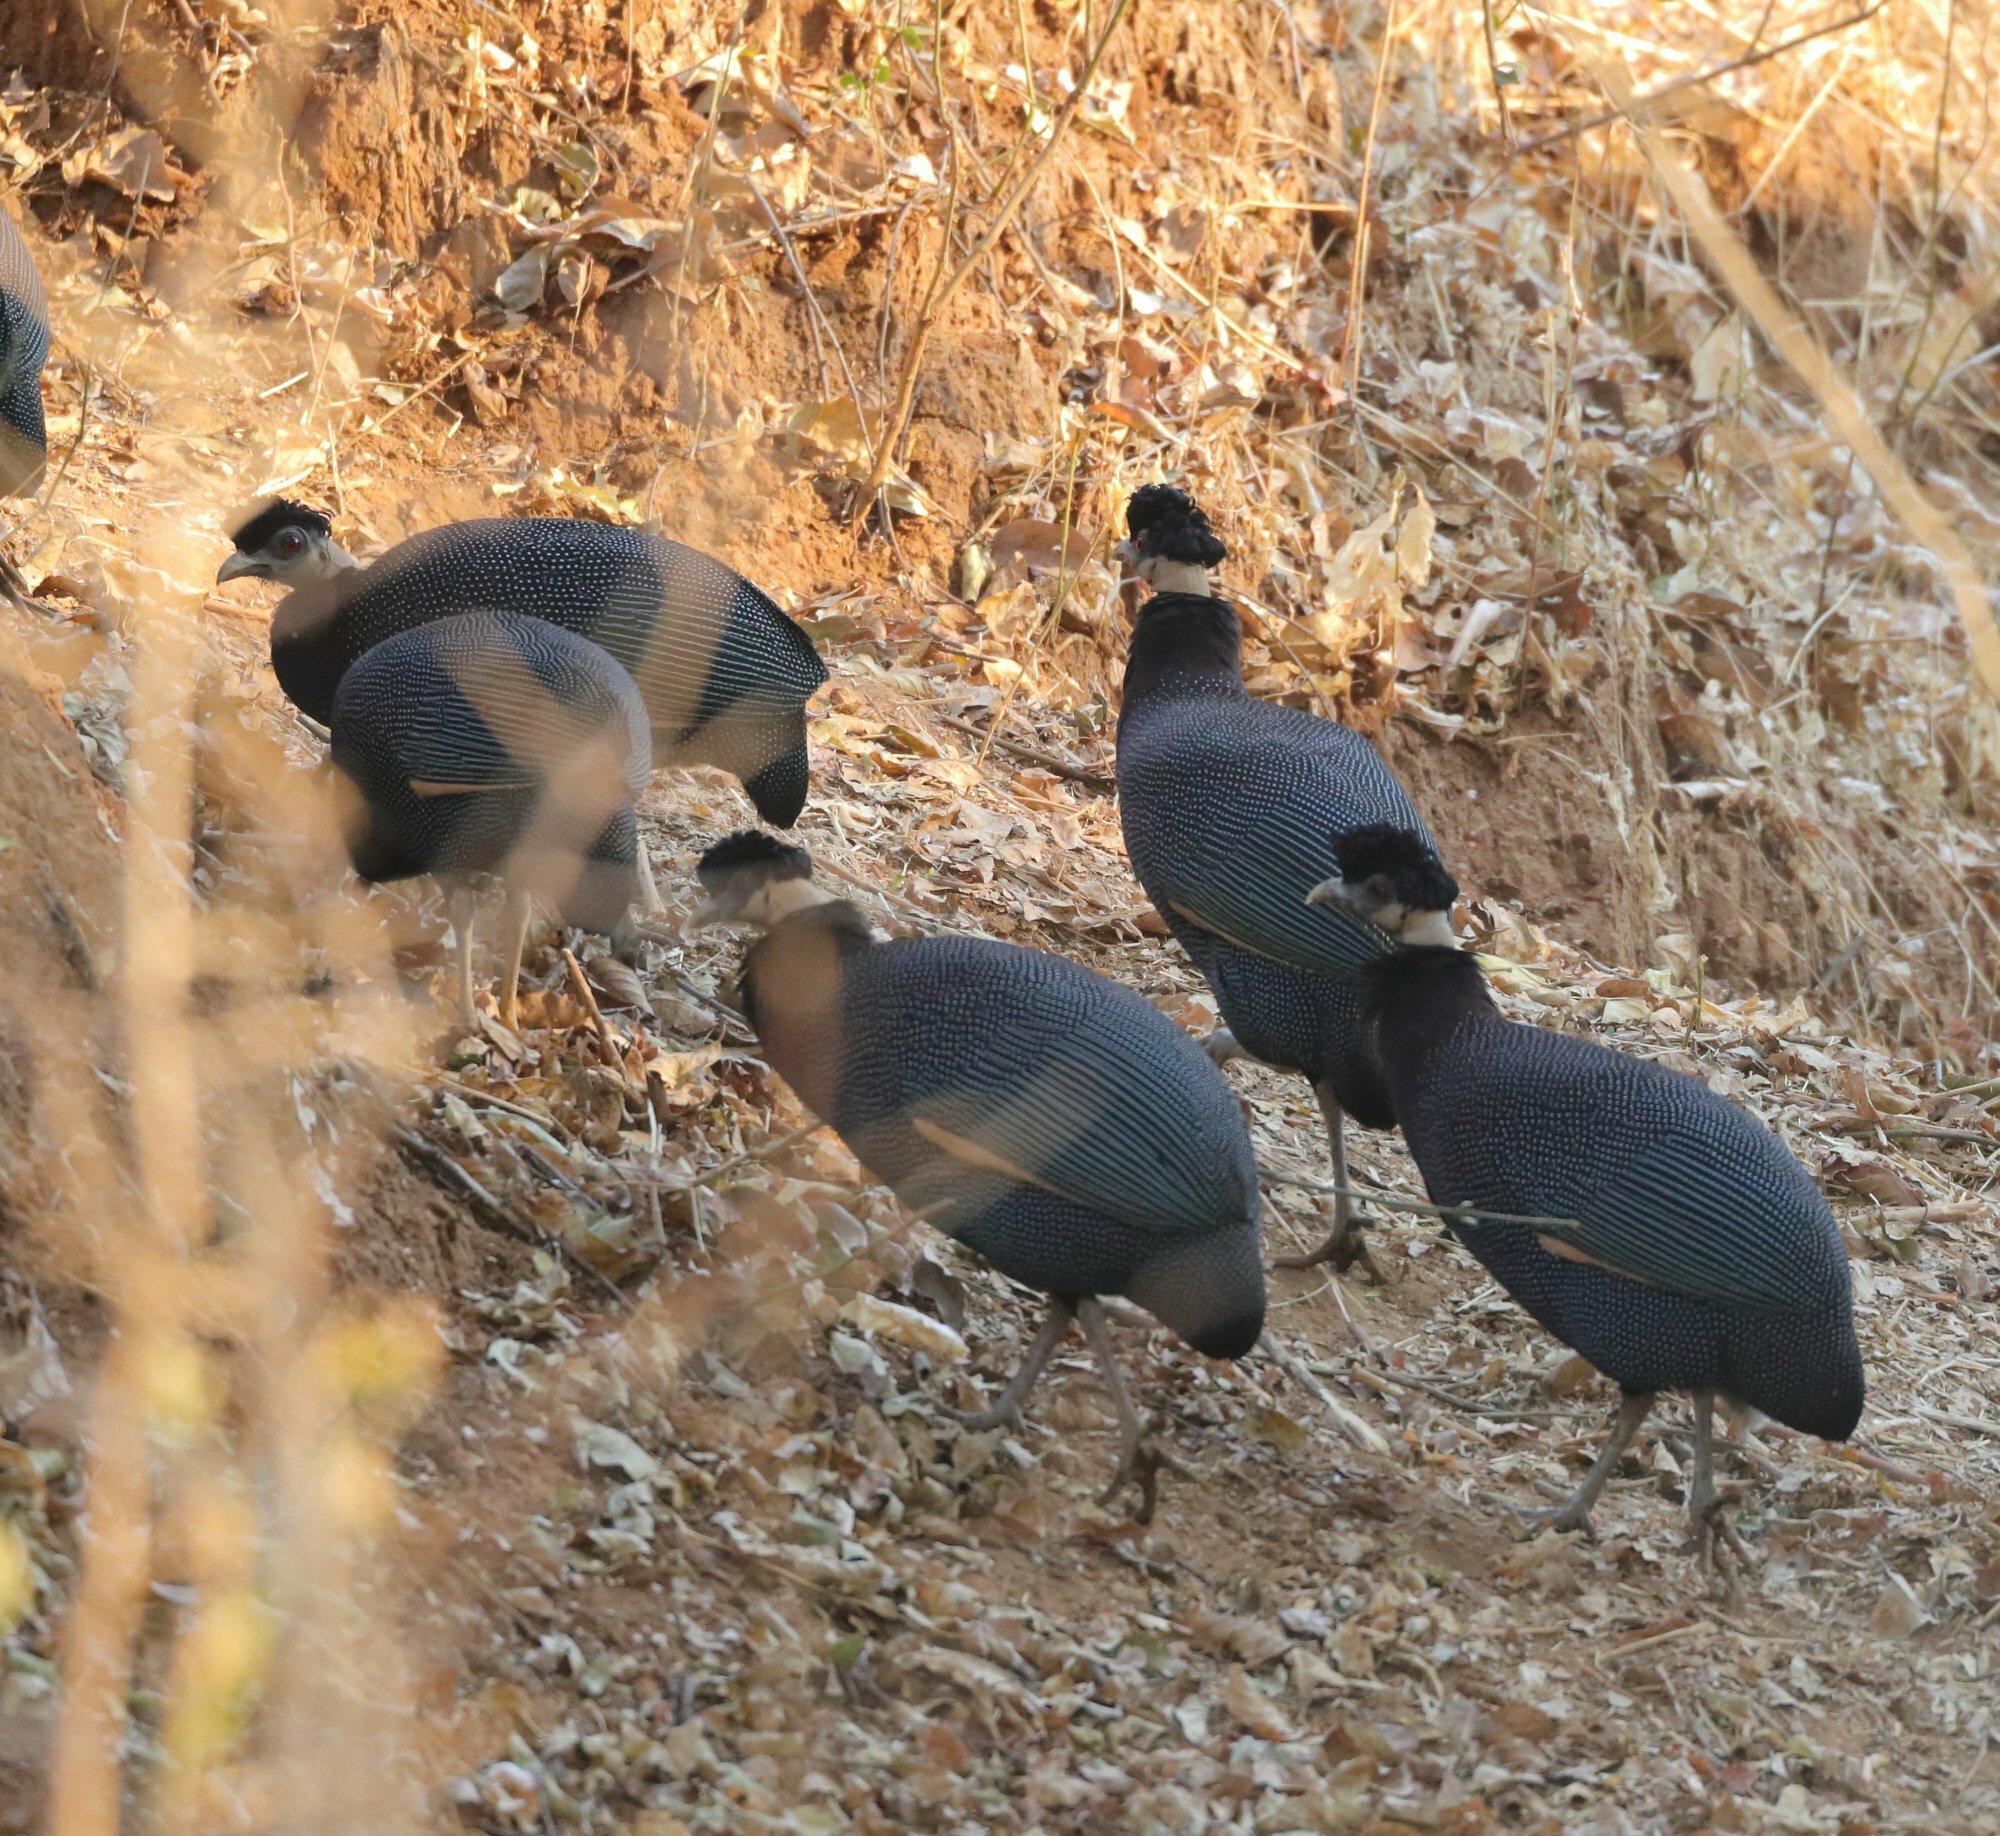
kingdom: Animalia
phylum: Chordata
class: Aves
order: Galliformes
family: Numididae
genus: Guttera
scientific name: Guttera pucherani
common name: Crested guineafowl
